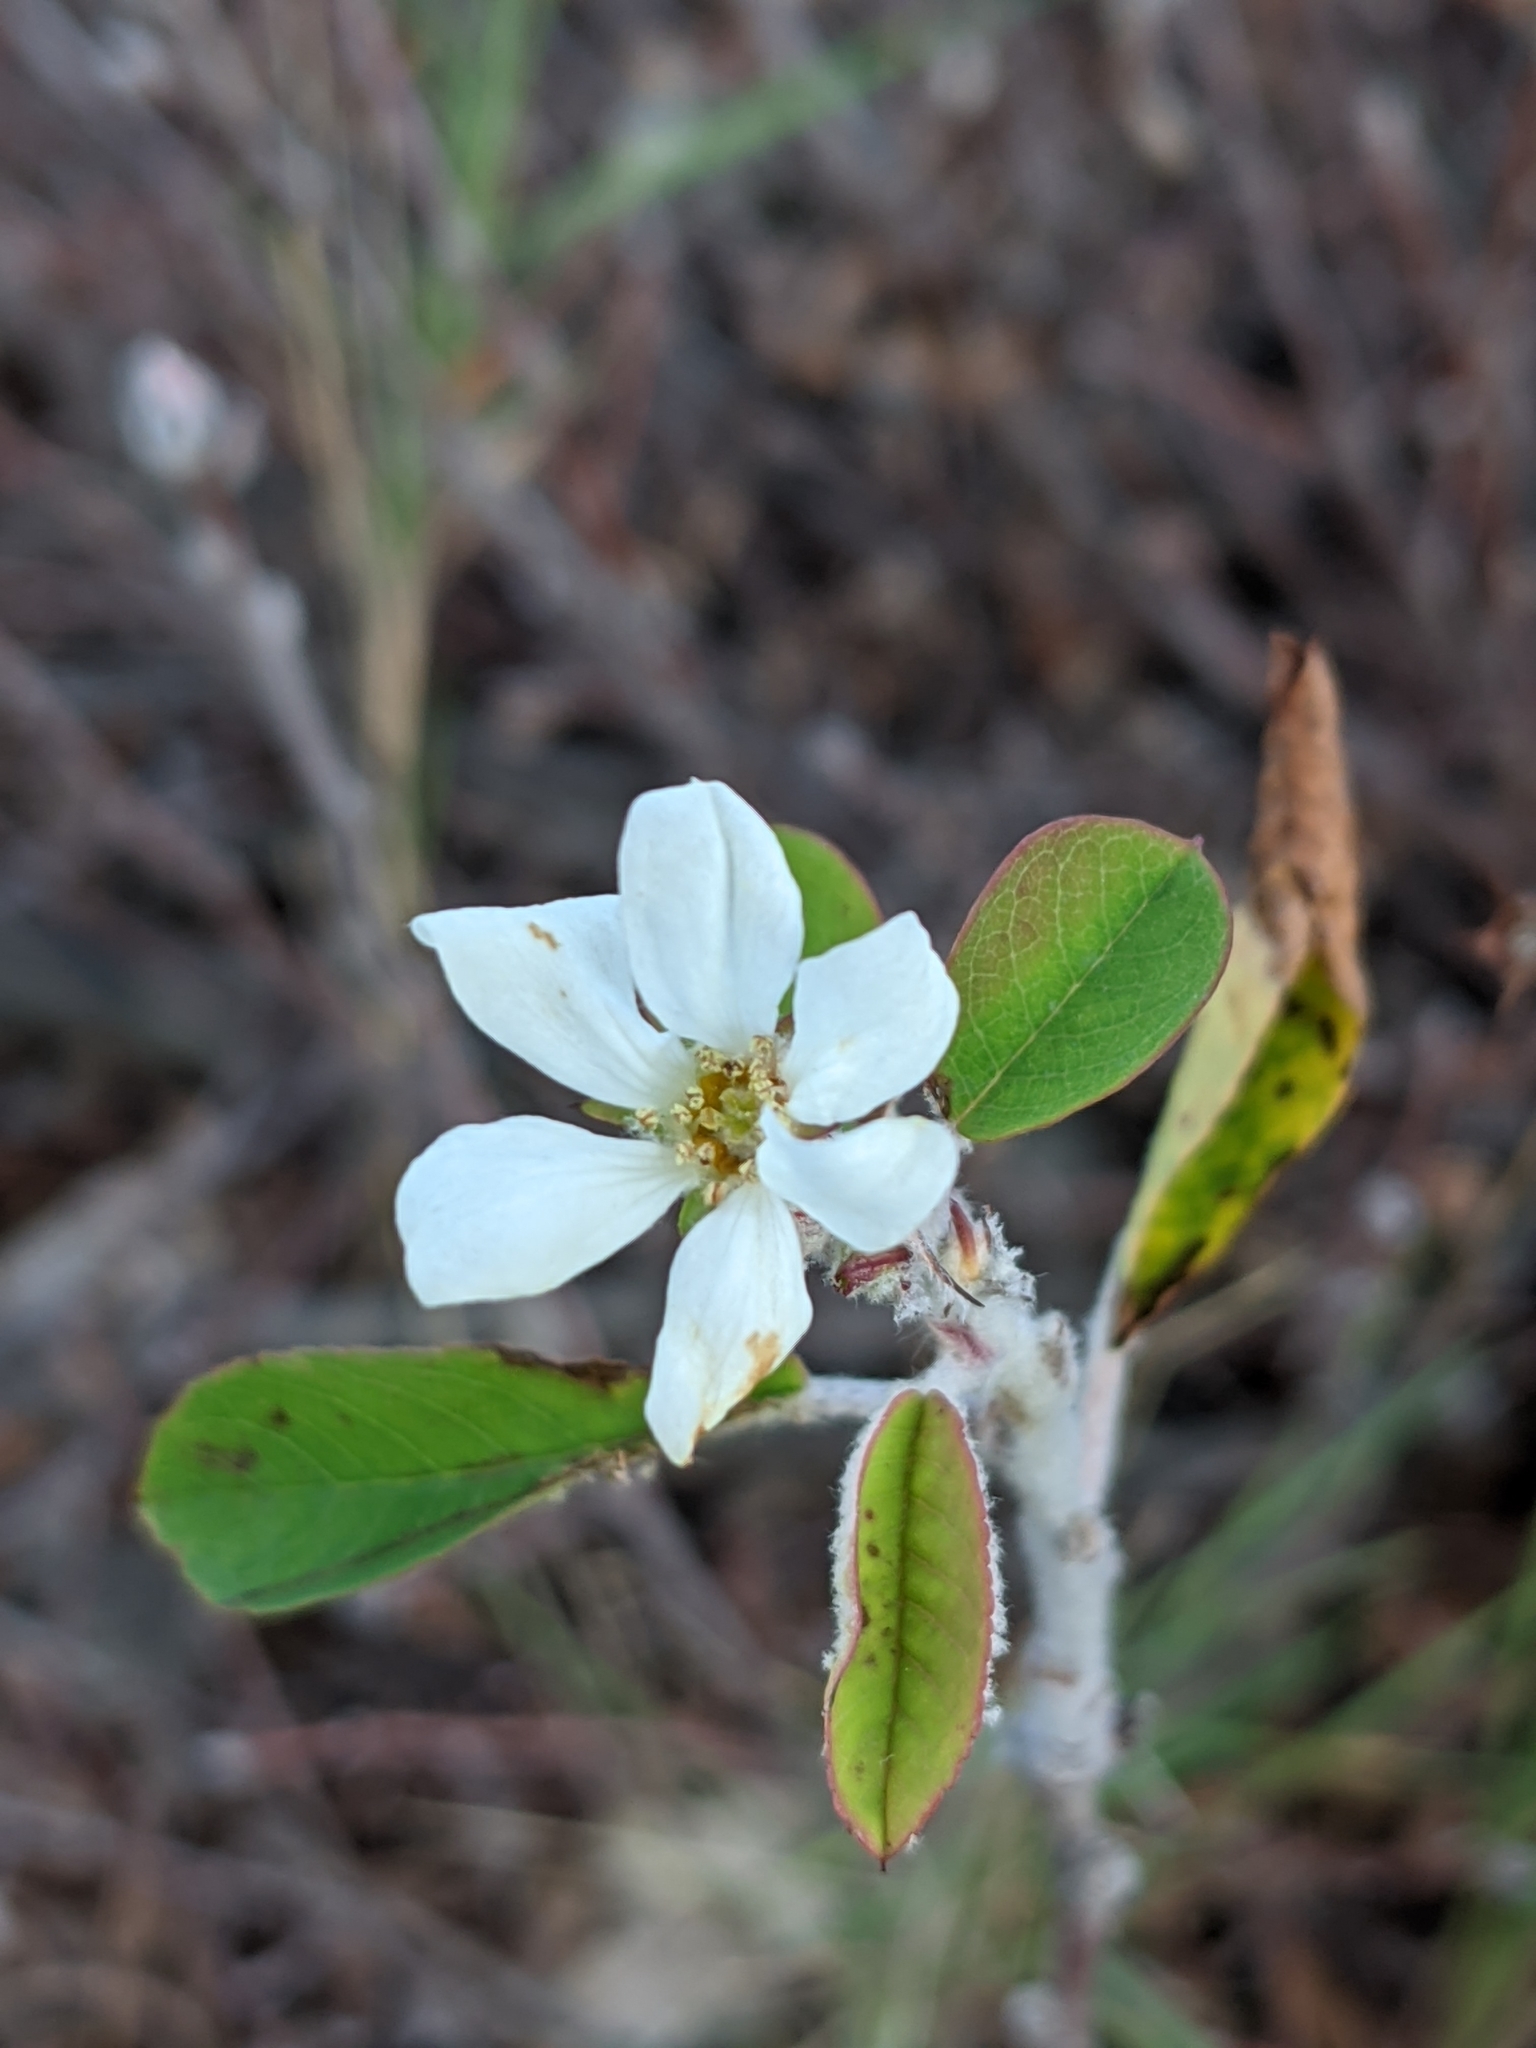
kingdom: Plantae
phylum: Tracheophyta
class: Magnoliopsida
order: Rosales
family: Rosaceae
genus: Amelanchier
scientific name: Amelanchier ovalis
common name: Serviceberry
